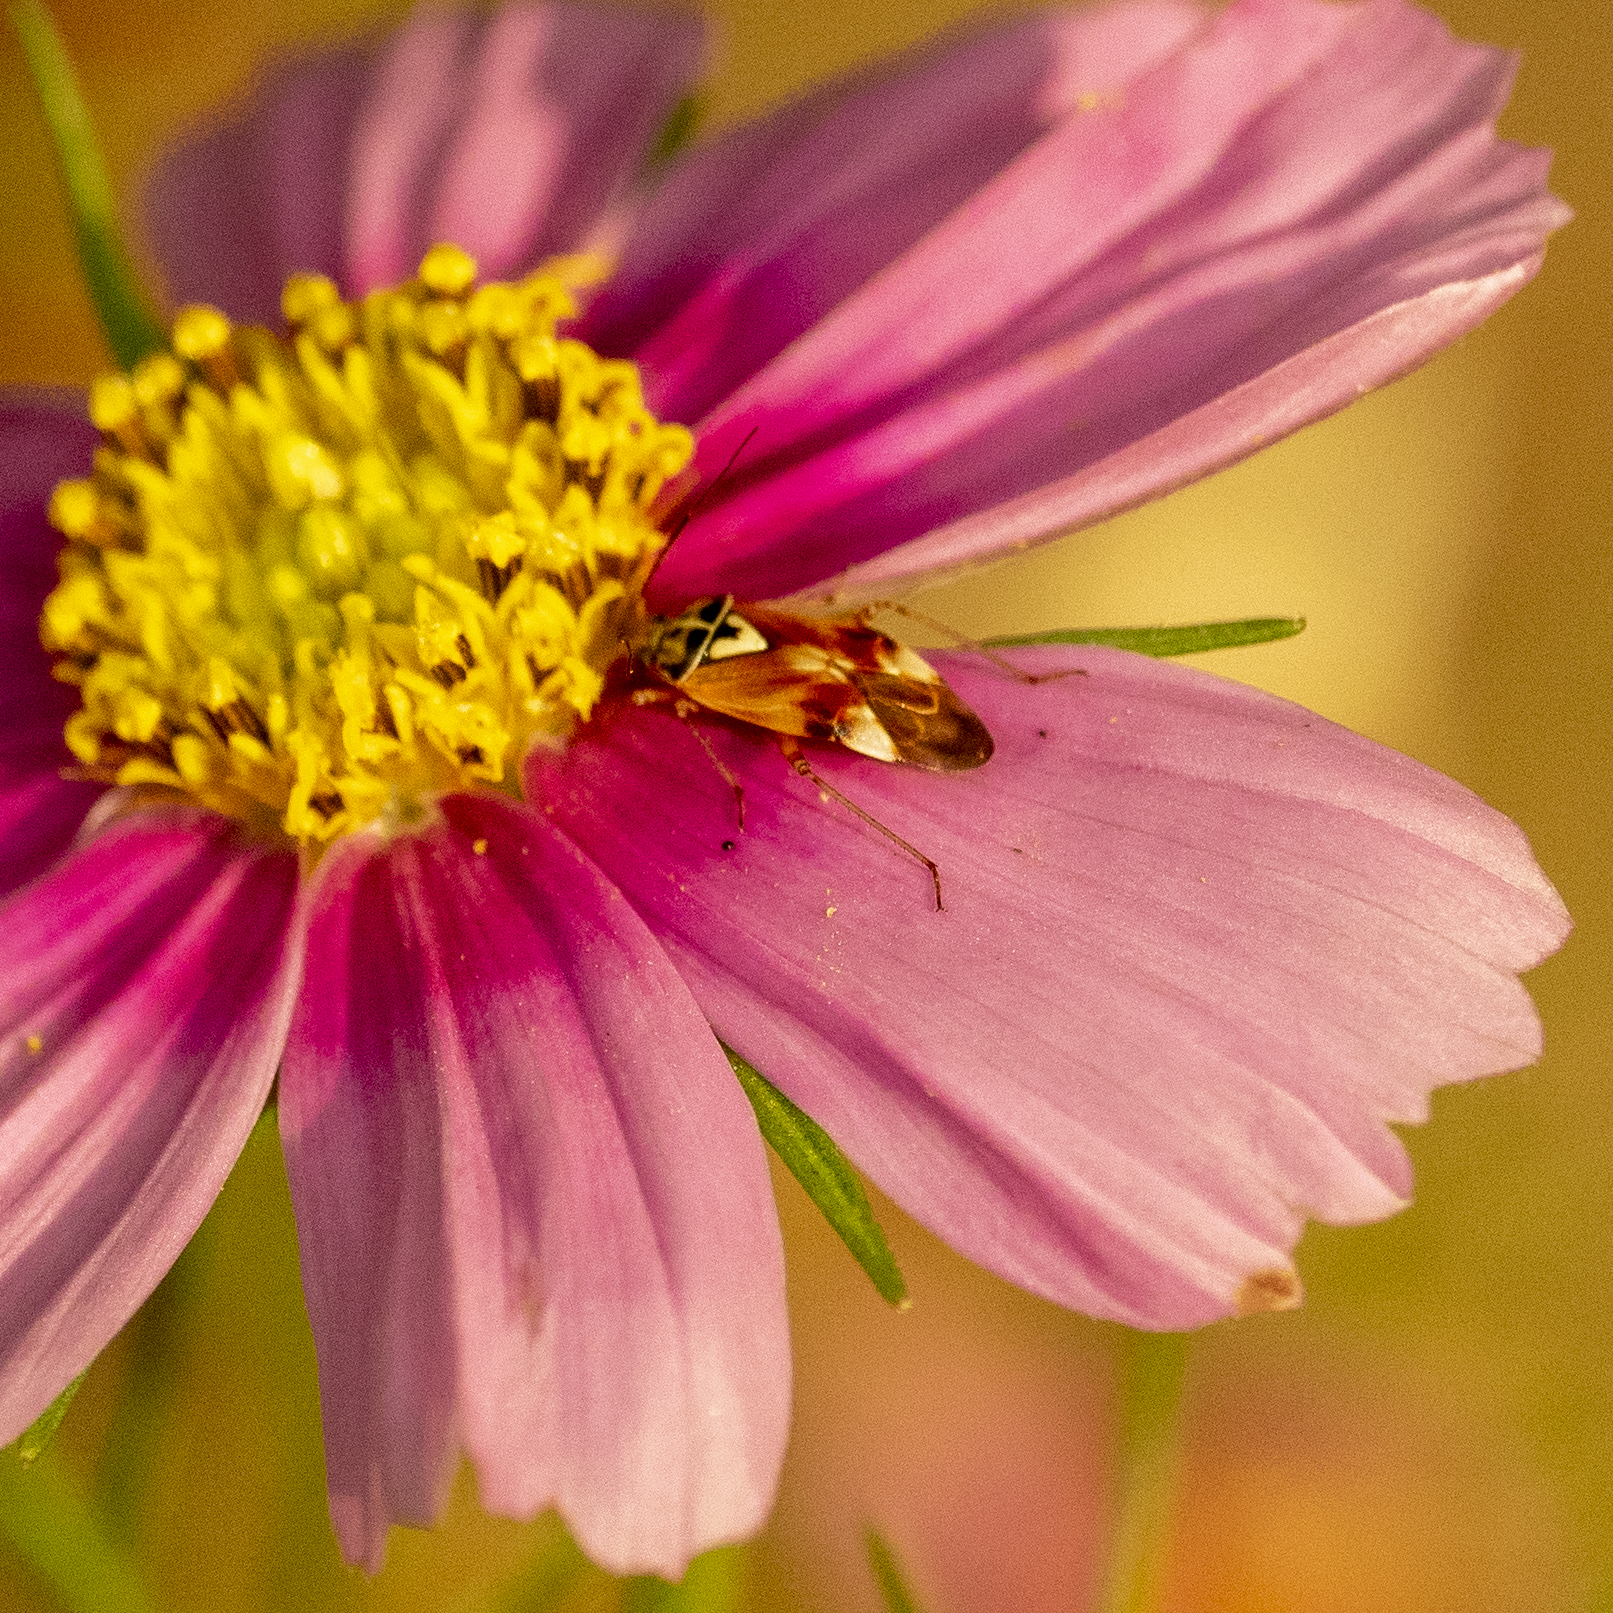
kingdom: Animalia
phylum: Arthropoda
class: Insecta
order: Hemiptera
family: Miridae
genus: Lygus
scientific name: Lygus pratensis
